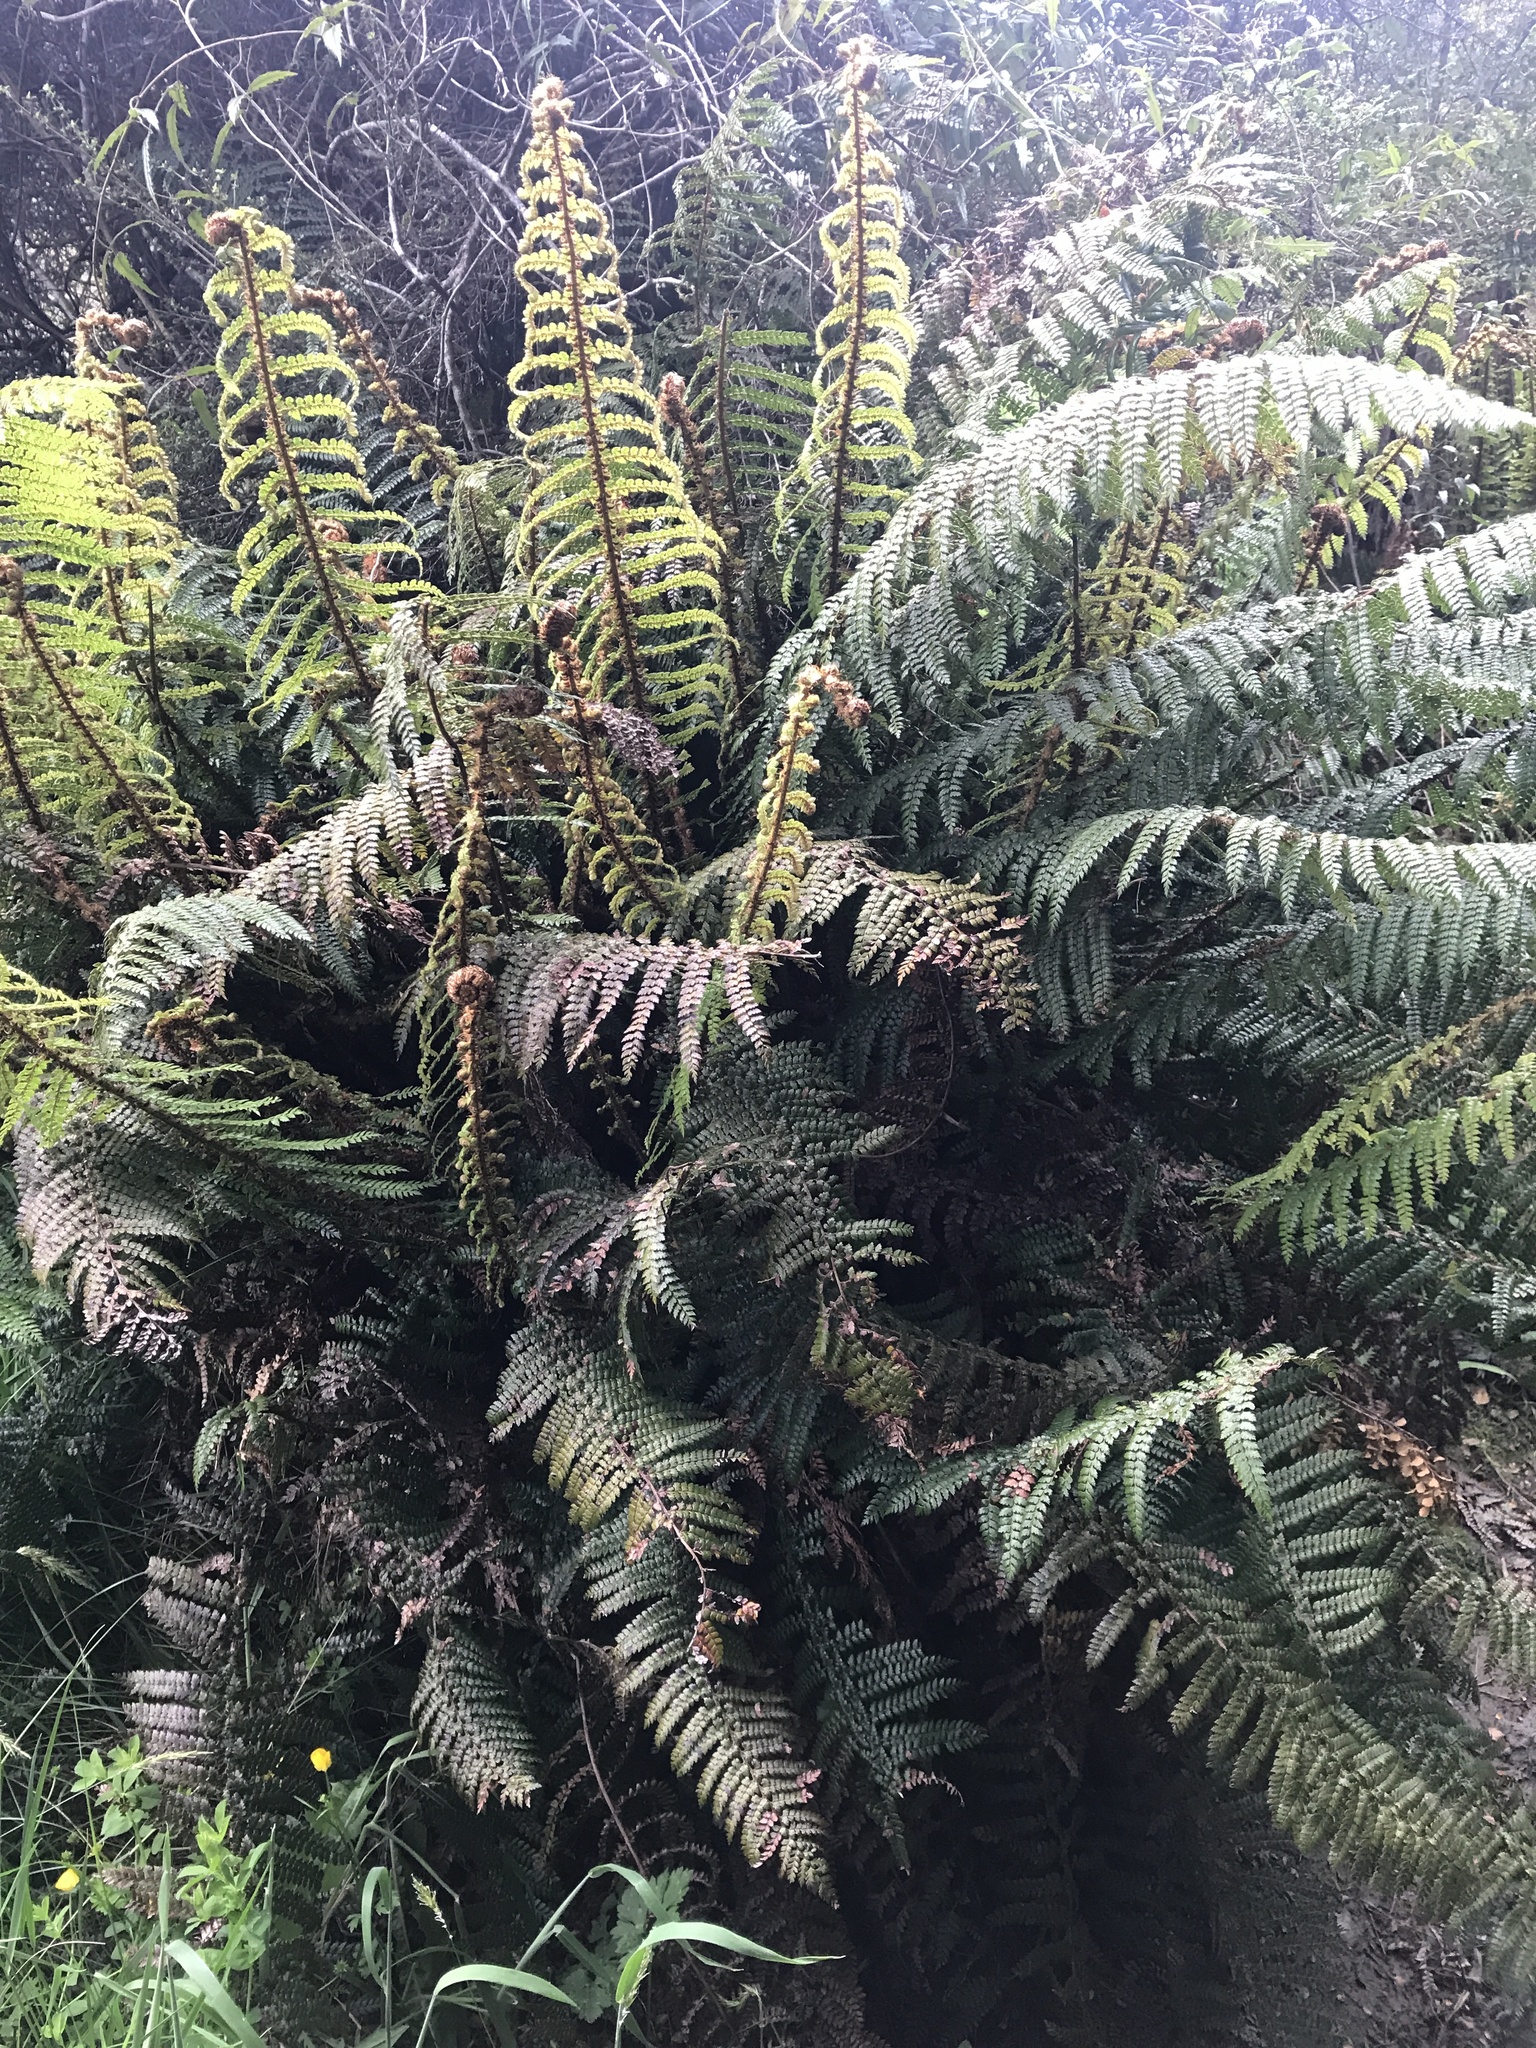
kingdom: Plantae
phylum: Tracheophyta
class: Polypodiopsida
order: Polypodiales
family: Dryopteridaceae
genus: Polystichum
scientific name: Polystichum vestitum
